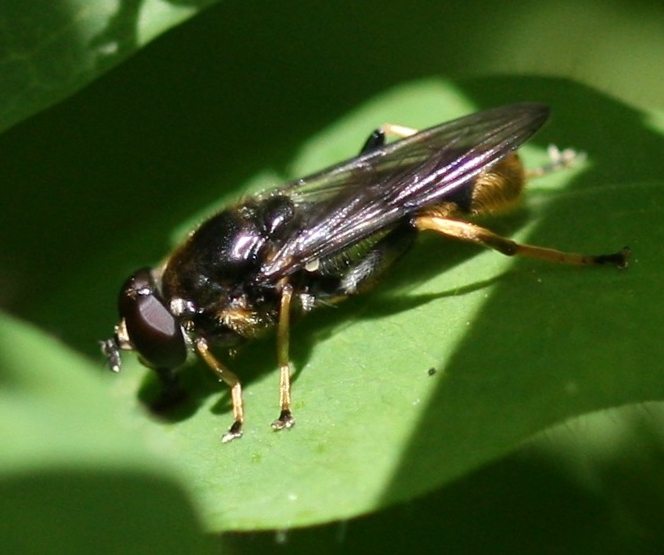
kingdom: Animalia
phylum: Arthropoda
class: Insecta
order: Diptera
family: Syrphidae
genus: Xylota
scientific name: Xylota sylvarum
